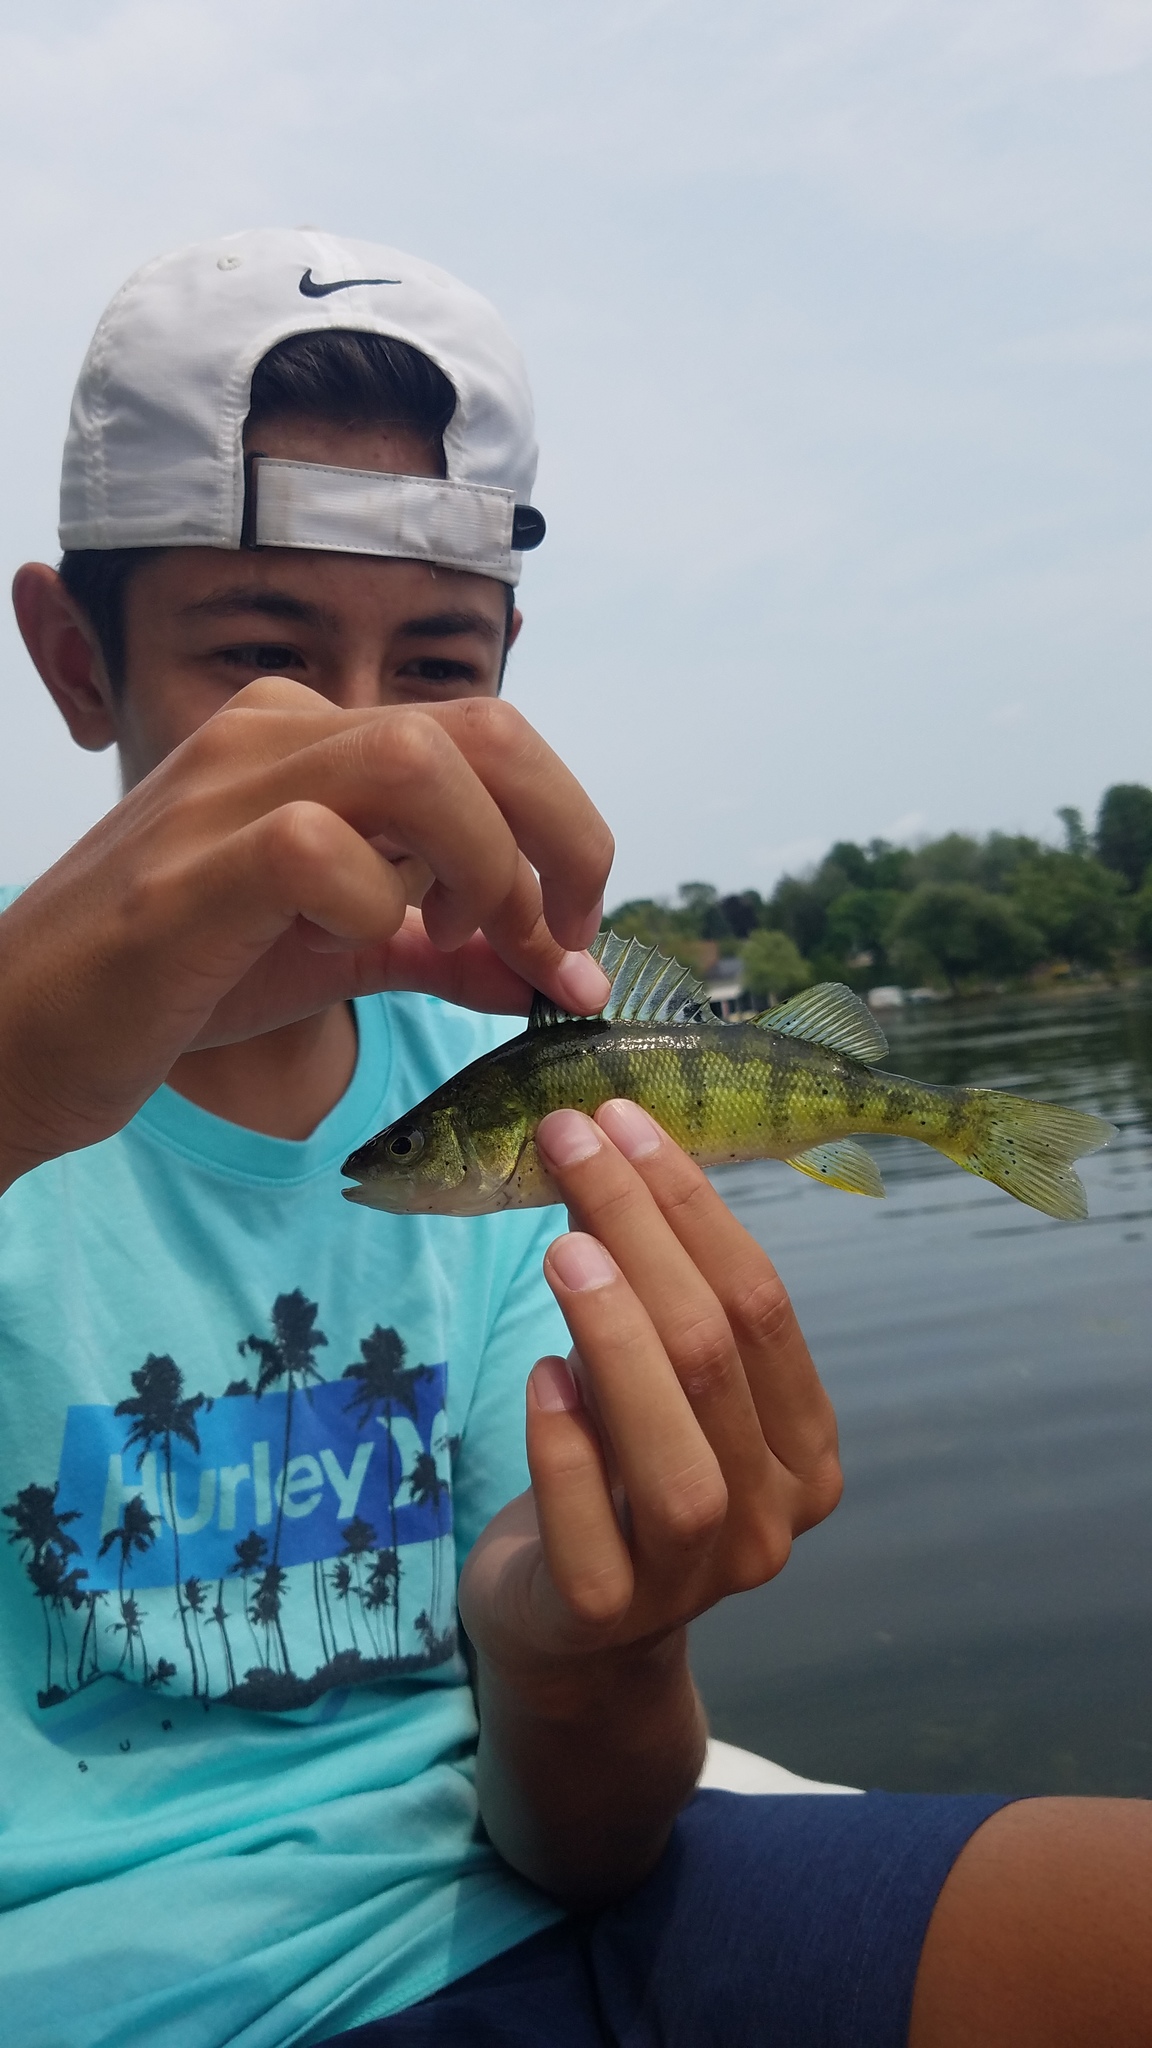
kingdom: Animalia
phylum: Chordata
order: Perciformes
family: Percidae
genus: Perca
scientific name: Perca flavescens
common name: Yellow perch
